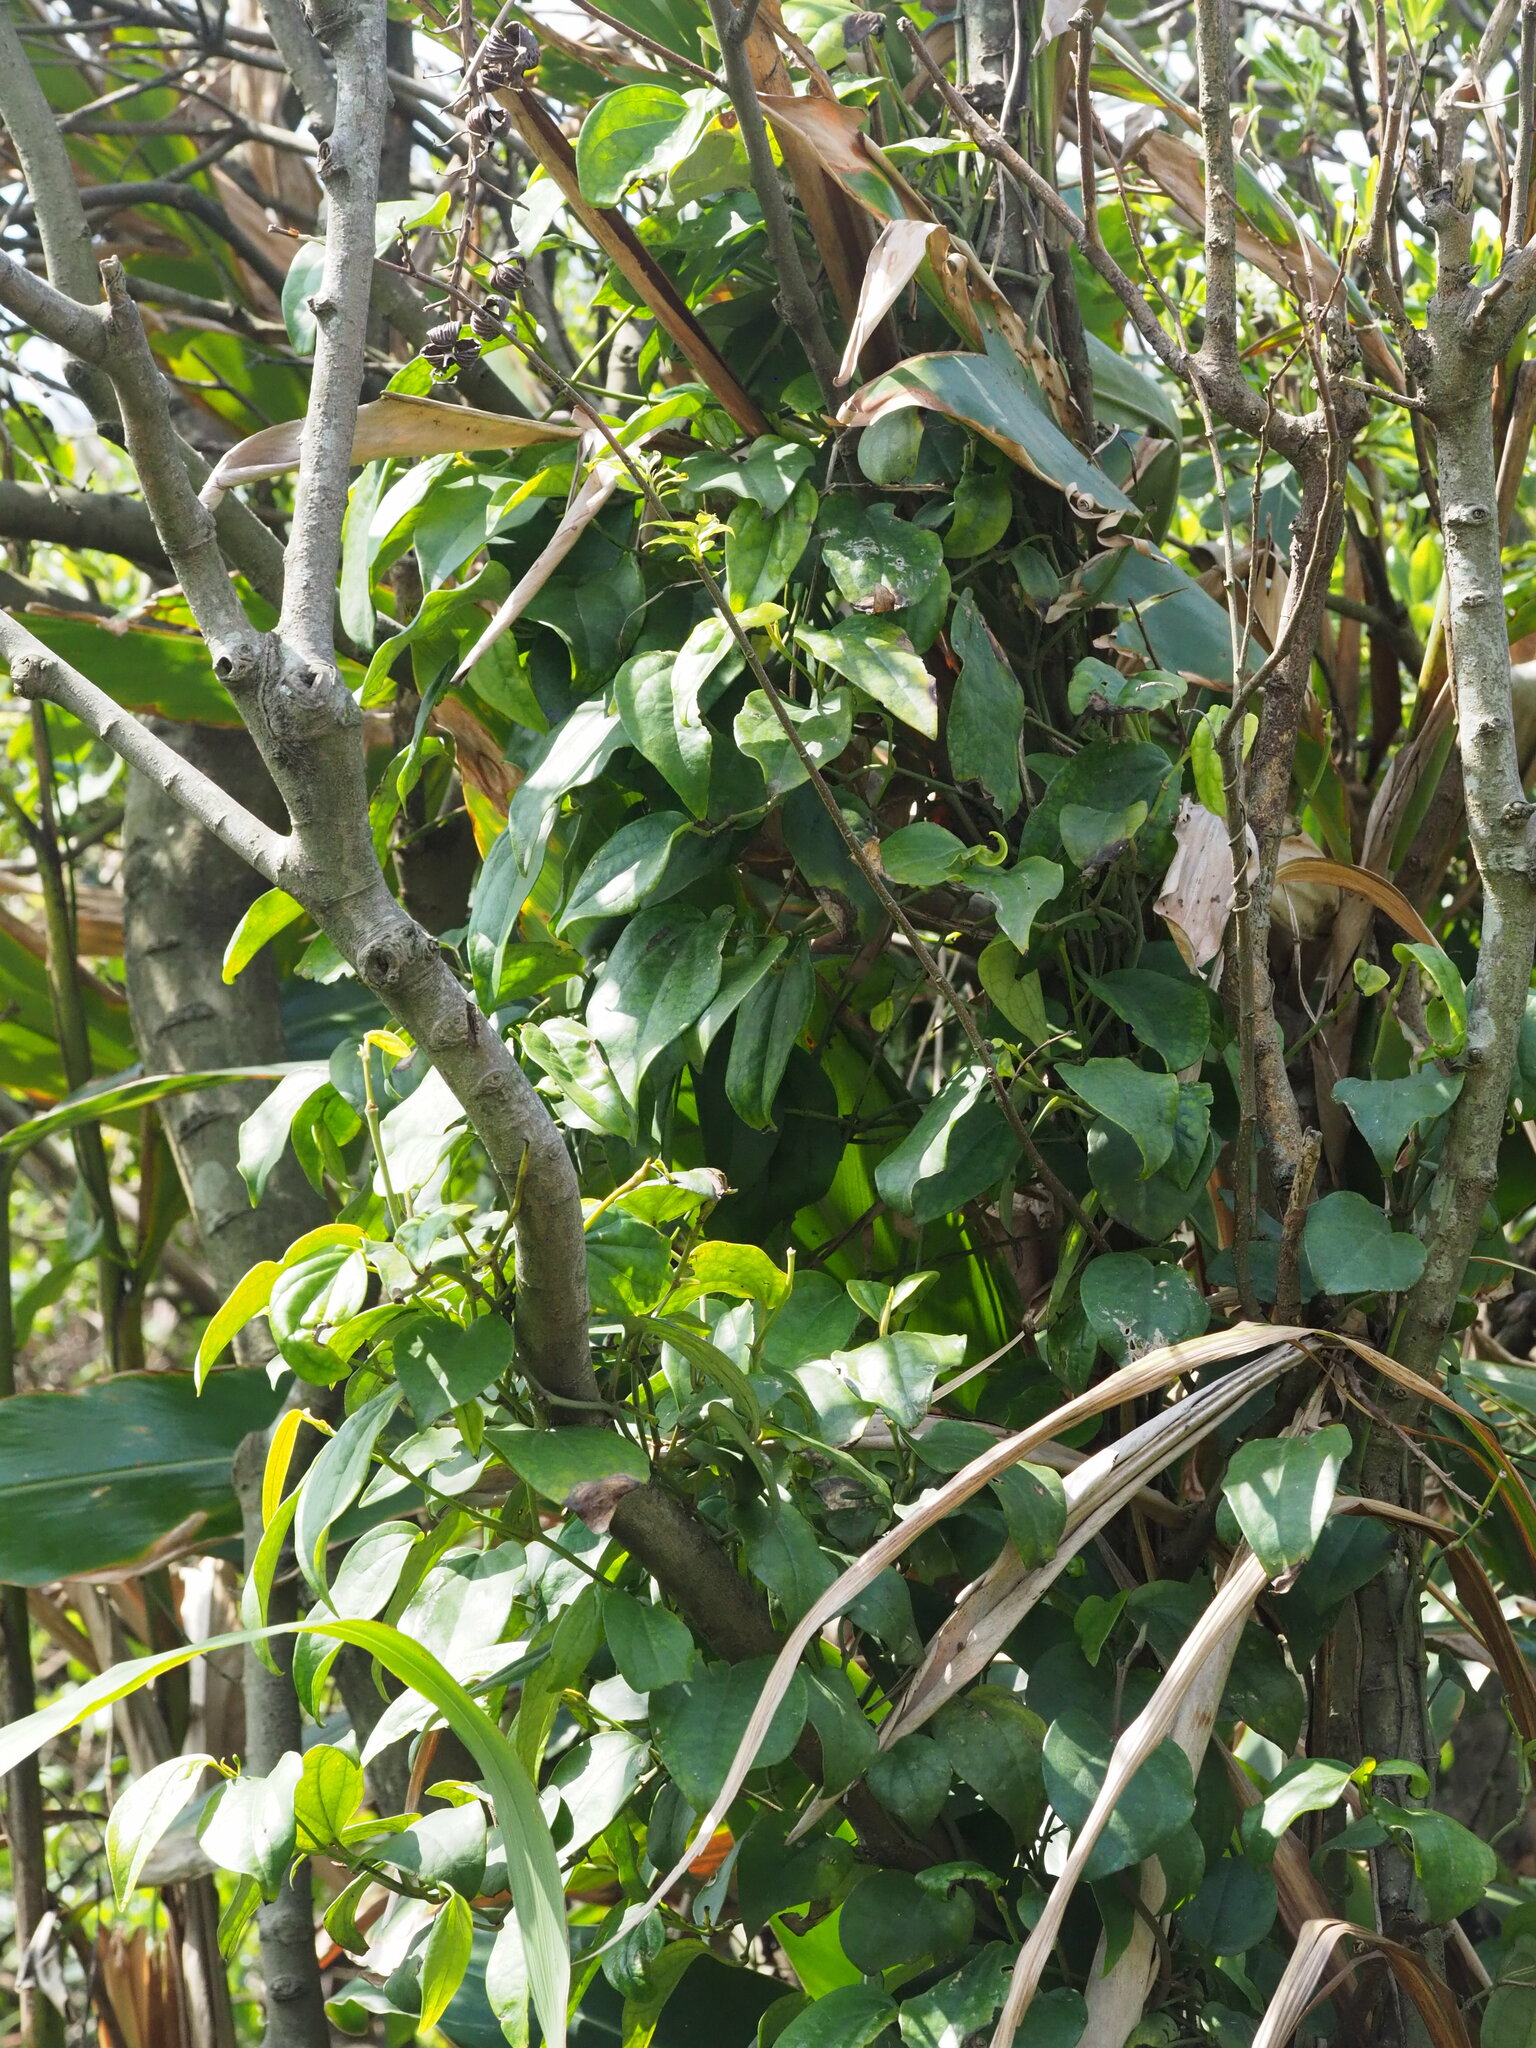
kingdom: Plantae
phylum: Tracheophyta
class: Magnoliopsida
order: Piperales
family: Piperaceae
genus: Piper
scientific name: Piper kadsura
